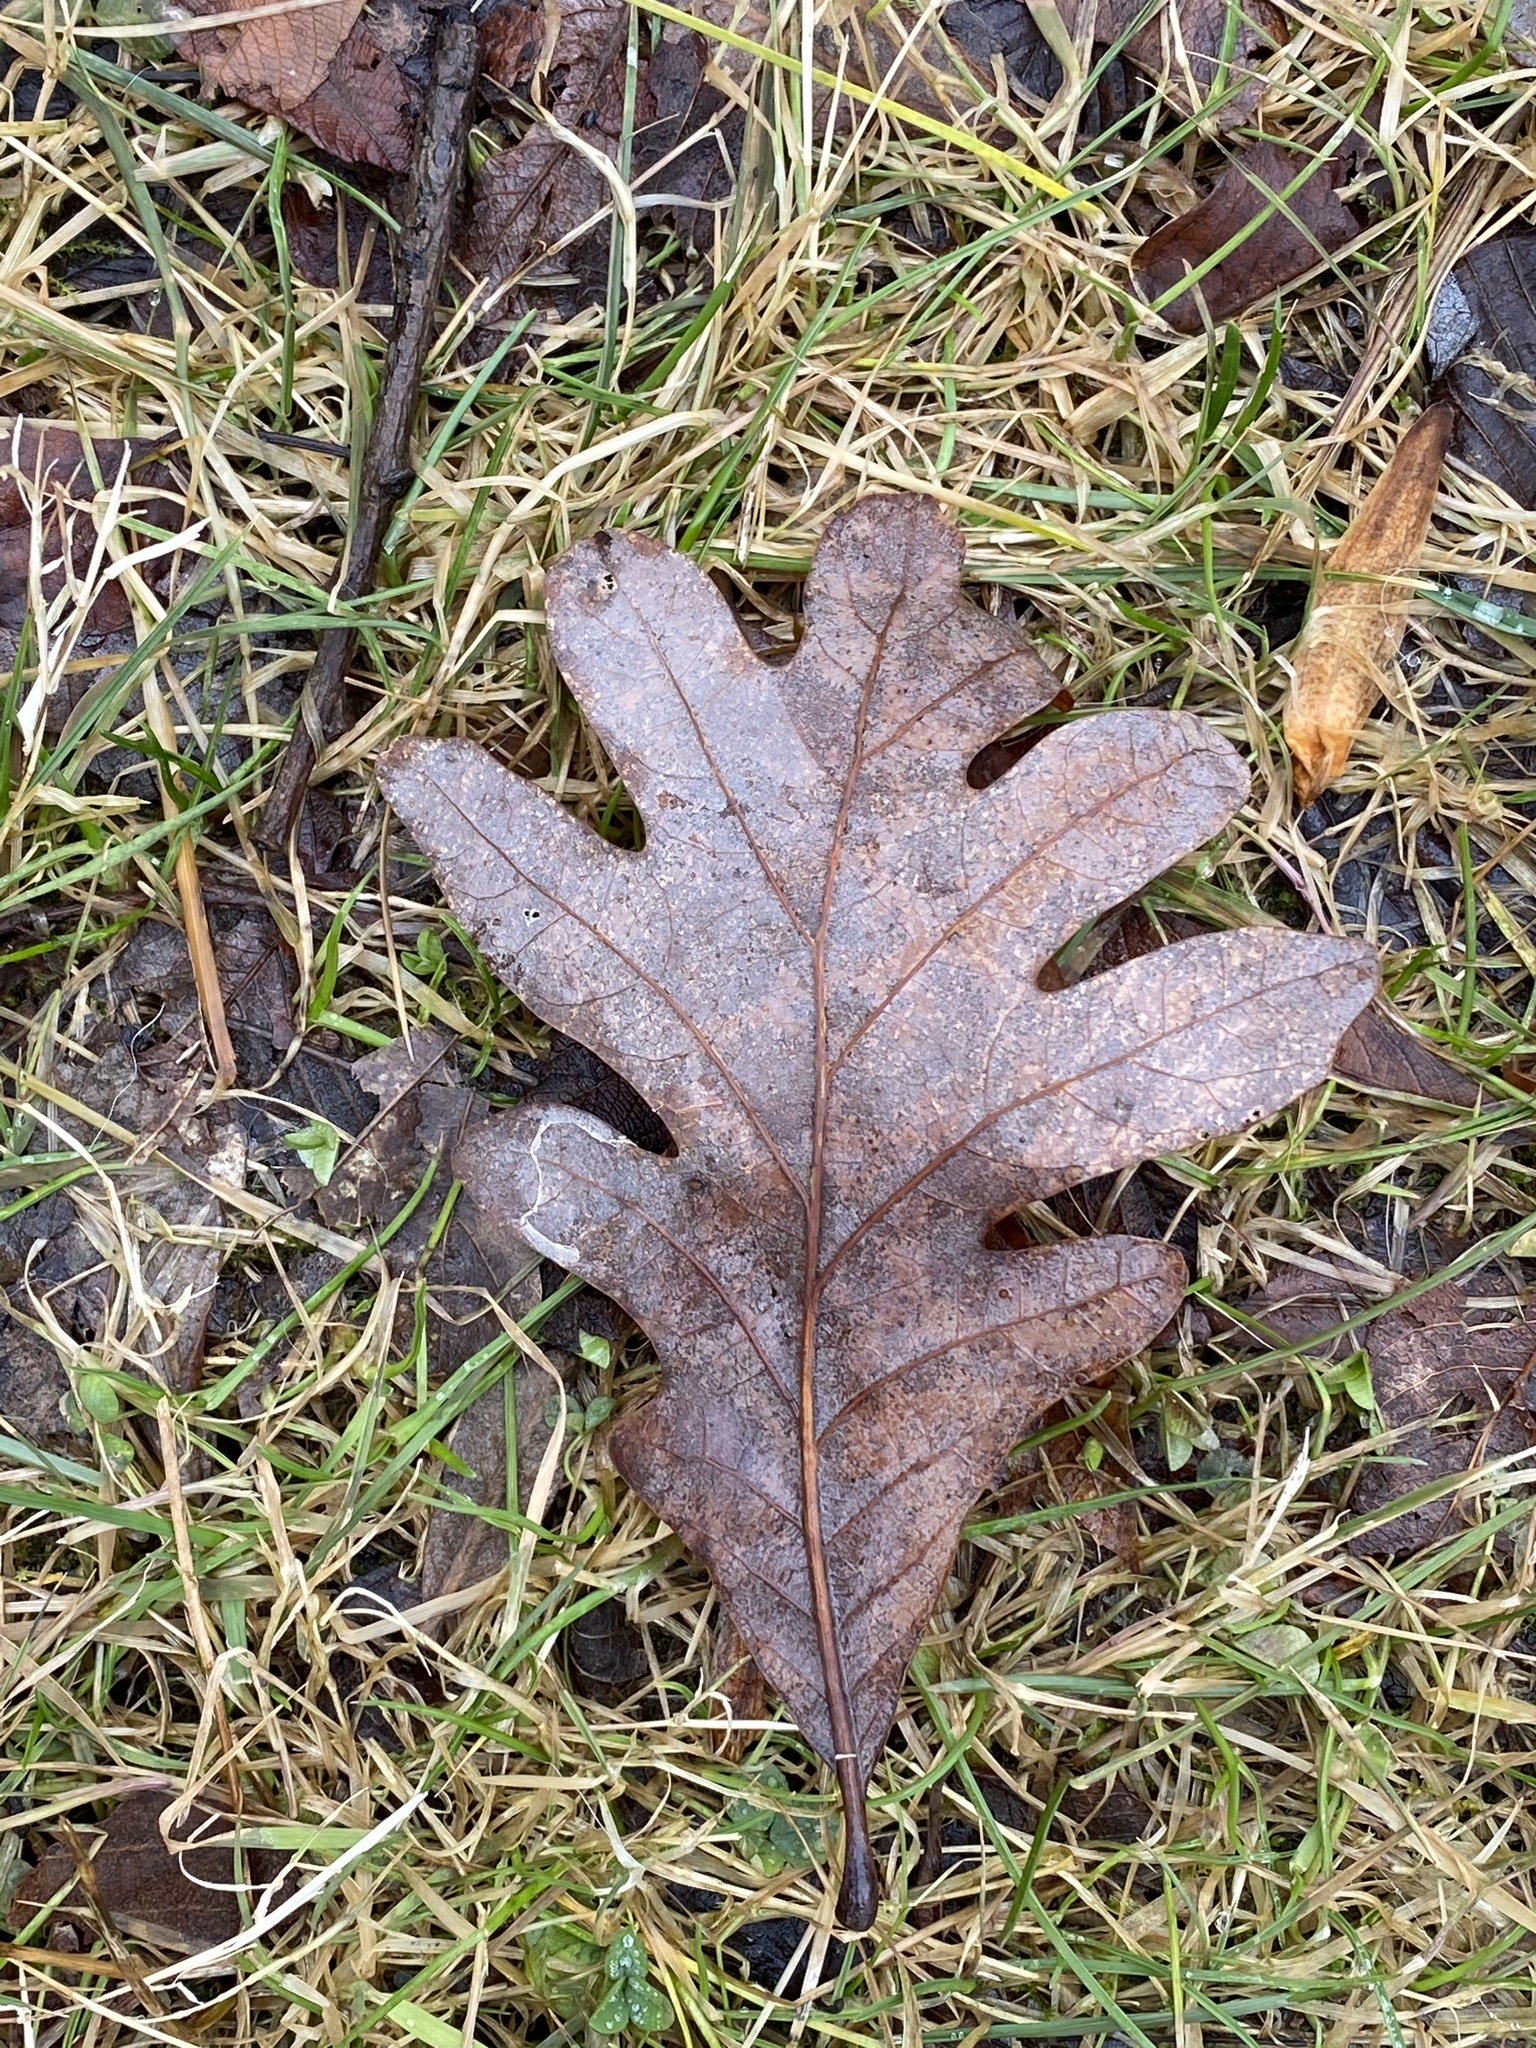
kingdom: Plantae
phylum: Tracheophyta
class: Magnoliopsida
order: Fagales
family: Fagaceae
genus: Quercus
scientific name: Quercus alba
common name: White oak
